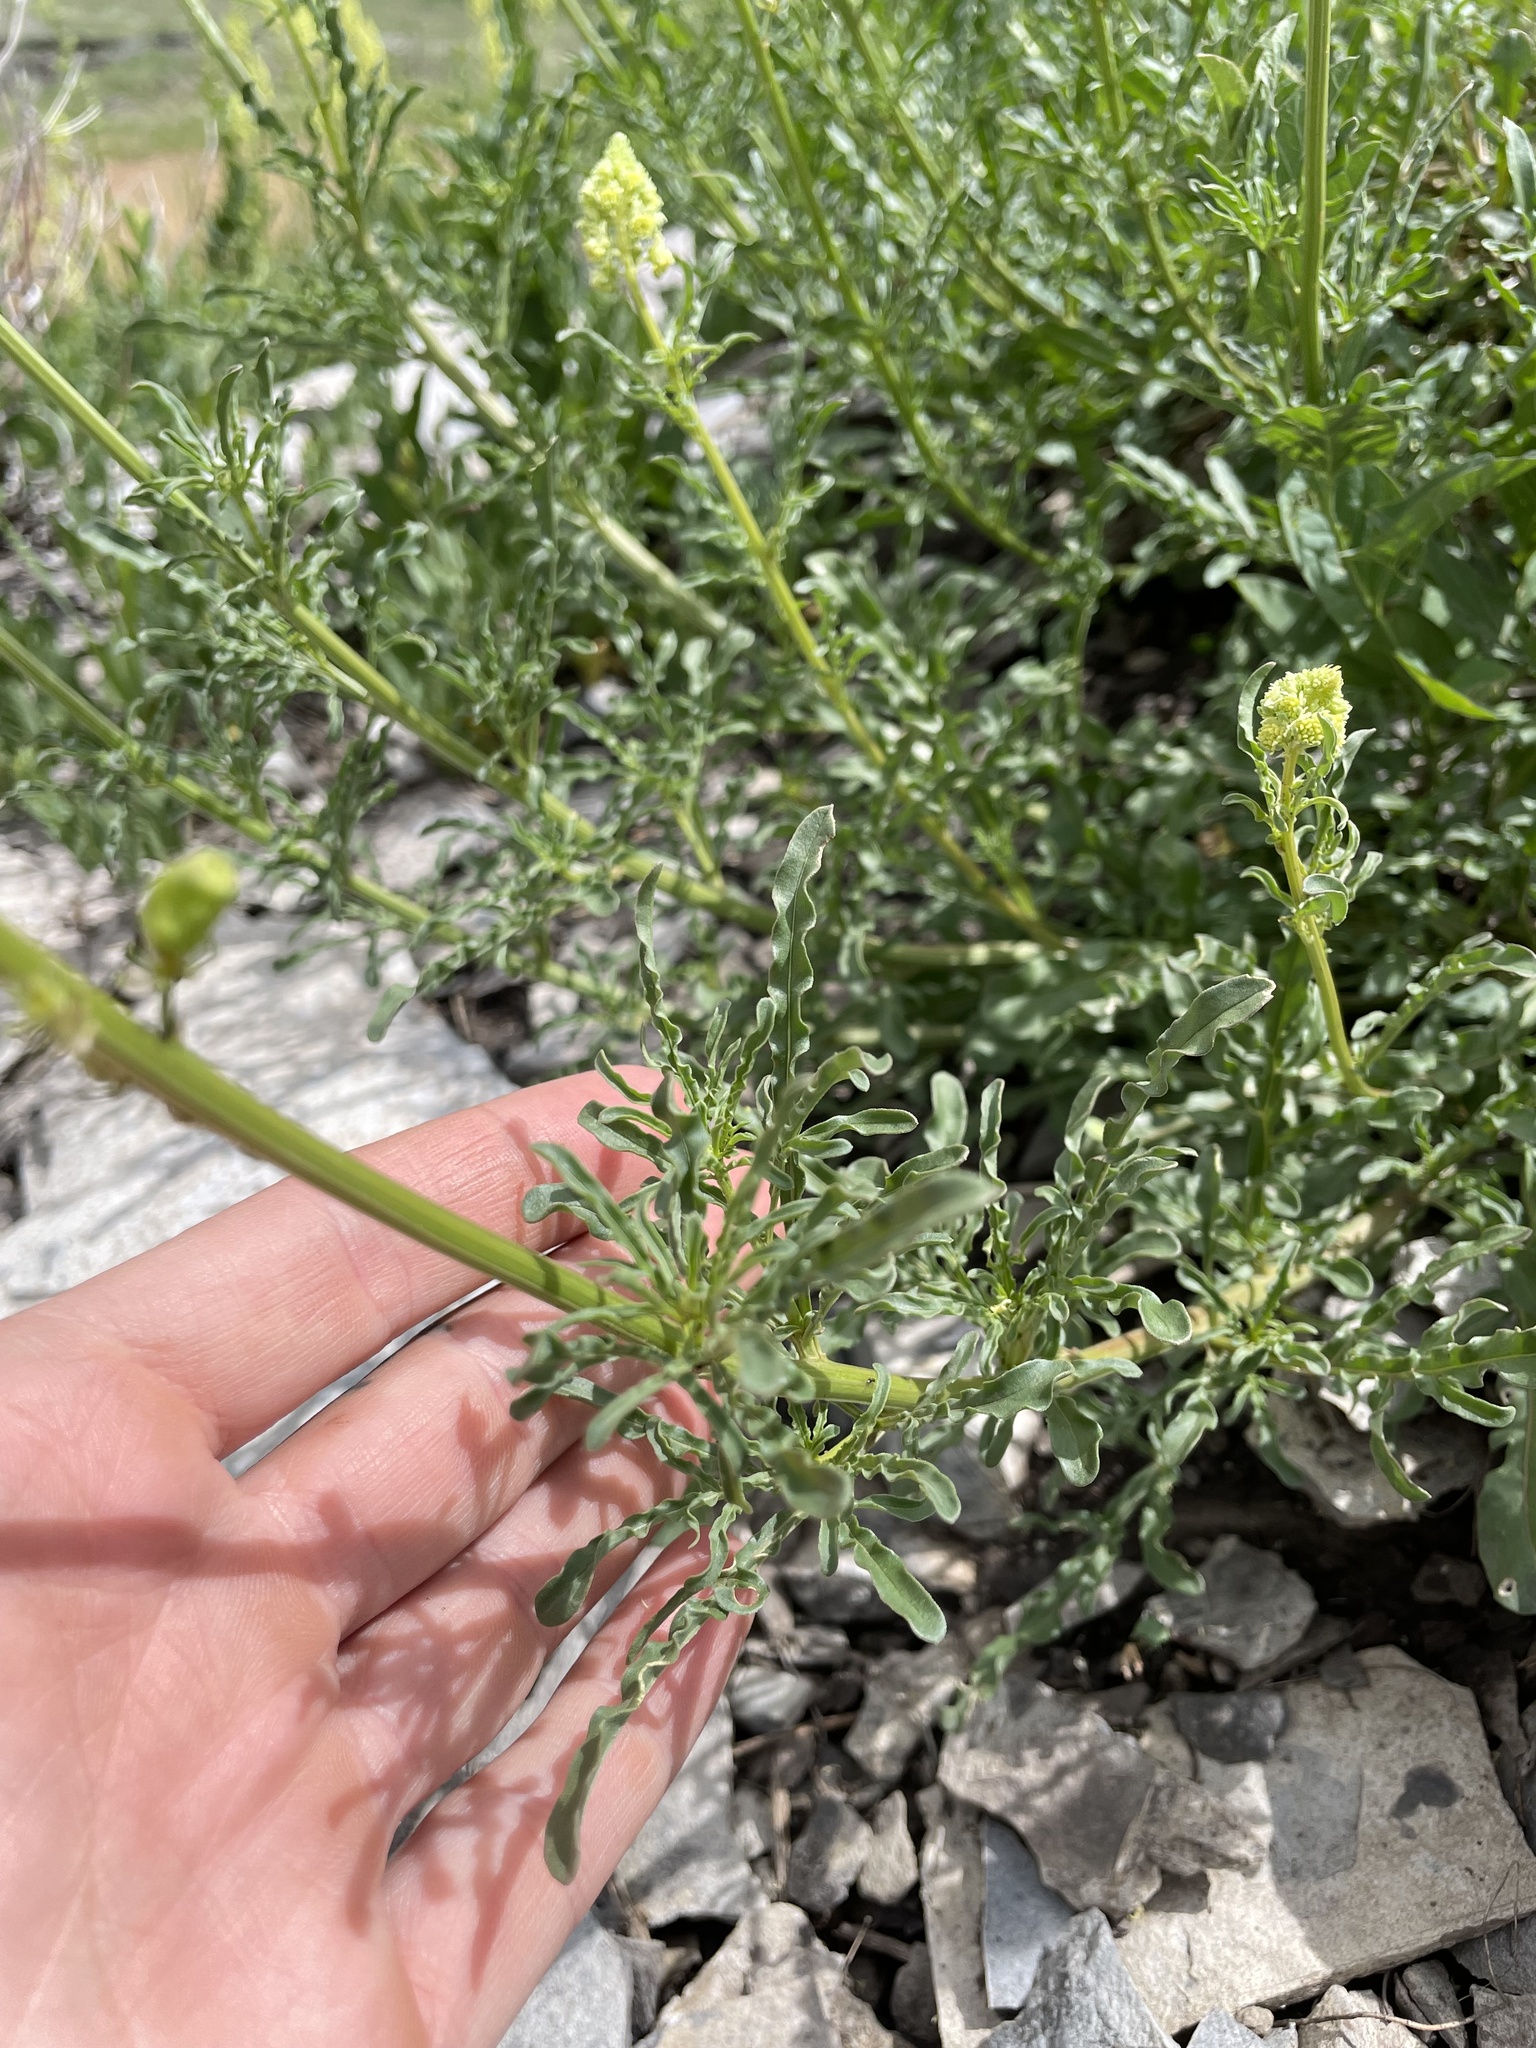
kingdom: Plantae
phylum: Tracheophyta
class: Magnoliopsida
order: Brassicales
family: Resedaceae
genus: Reseda
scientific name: Reseda lutea
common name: Wild mignonette
